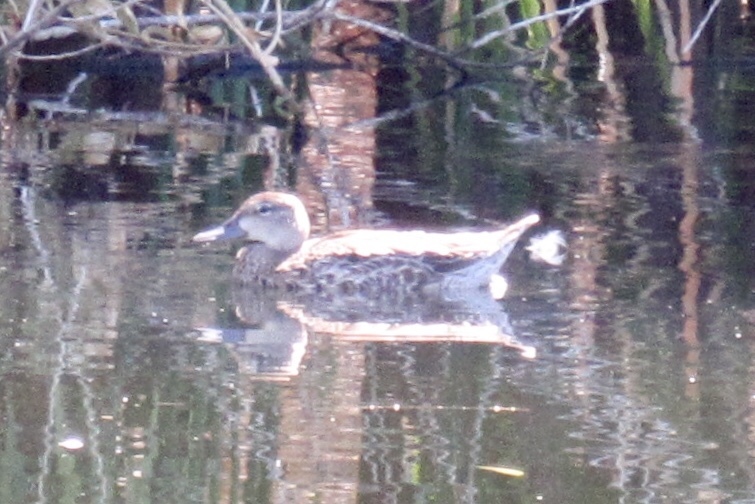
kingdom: Animalia
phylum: Chordata
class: Aves
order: Anseriformes
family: Anatidae
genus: Spatula
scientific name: Spatula discors
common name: Blue-winged teal
